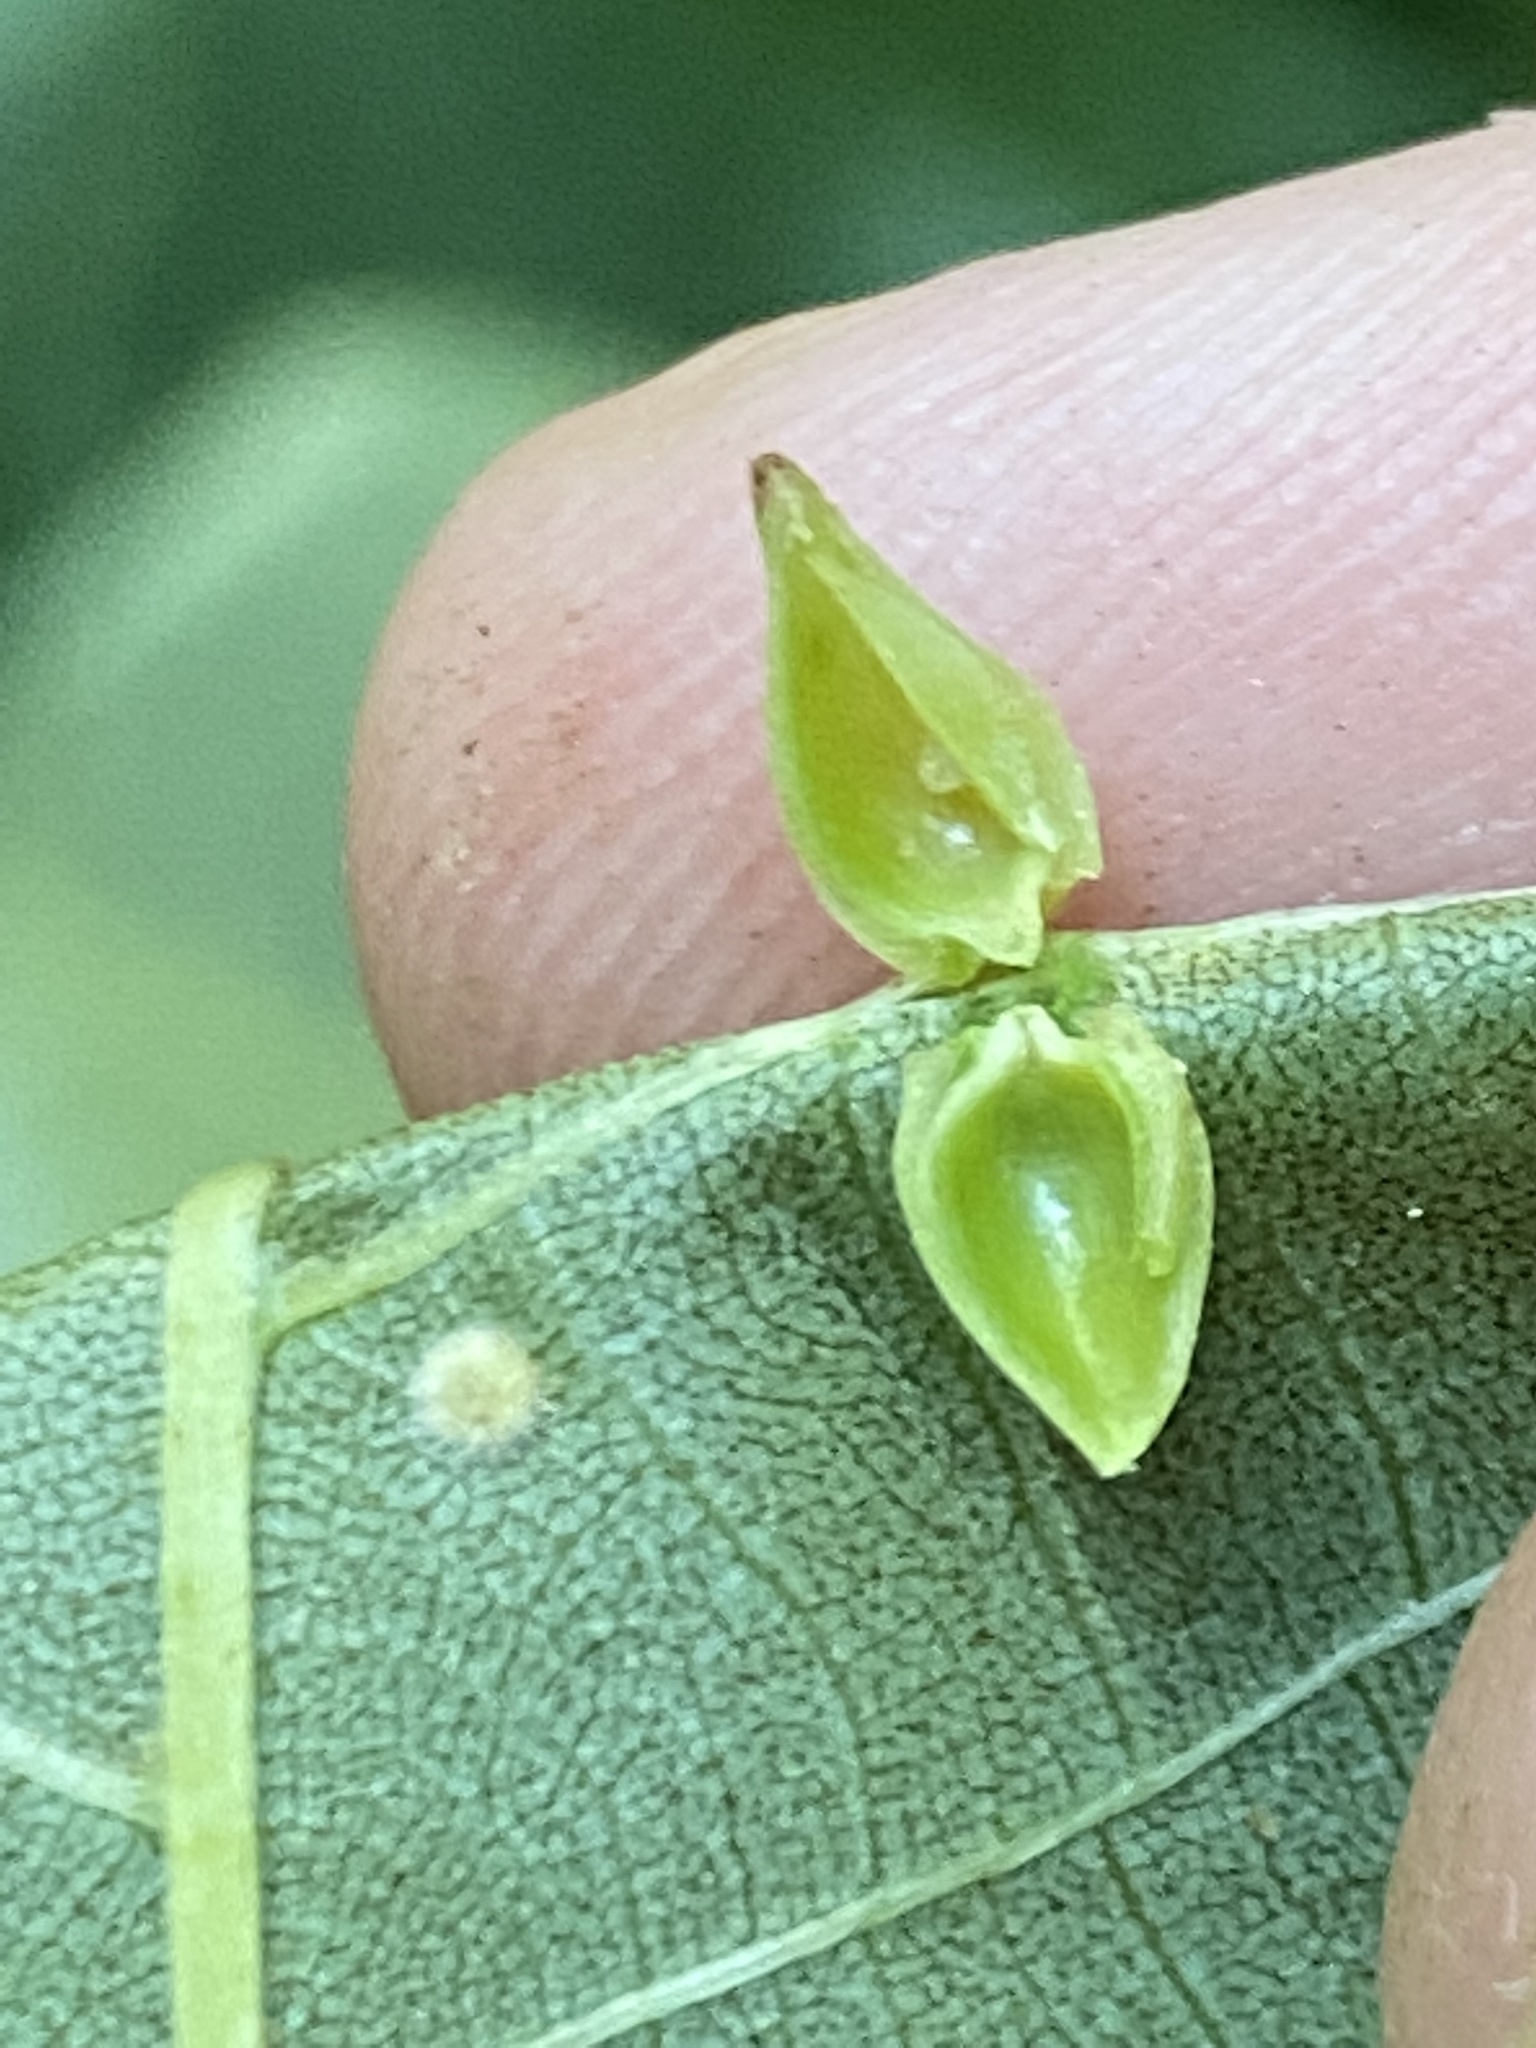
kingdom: Animalia
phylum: Arthropoda
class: Insecta
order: Diptera
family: Cecidomyiidae
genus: Caryomyia
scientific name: Caryomyia caryaecola
